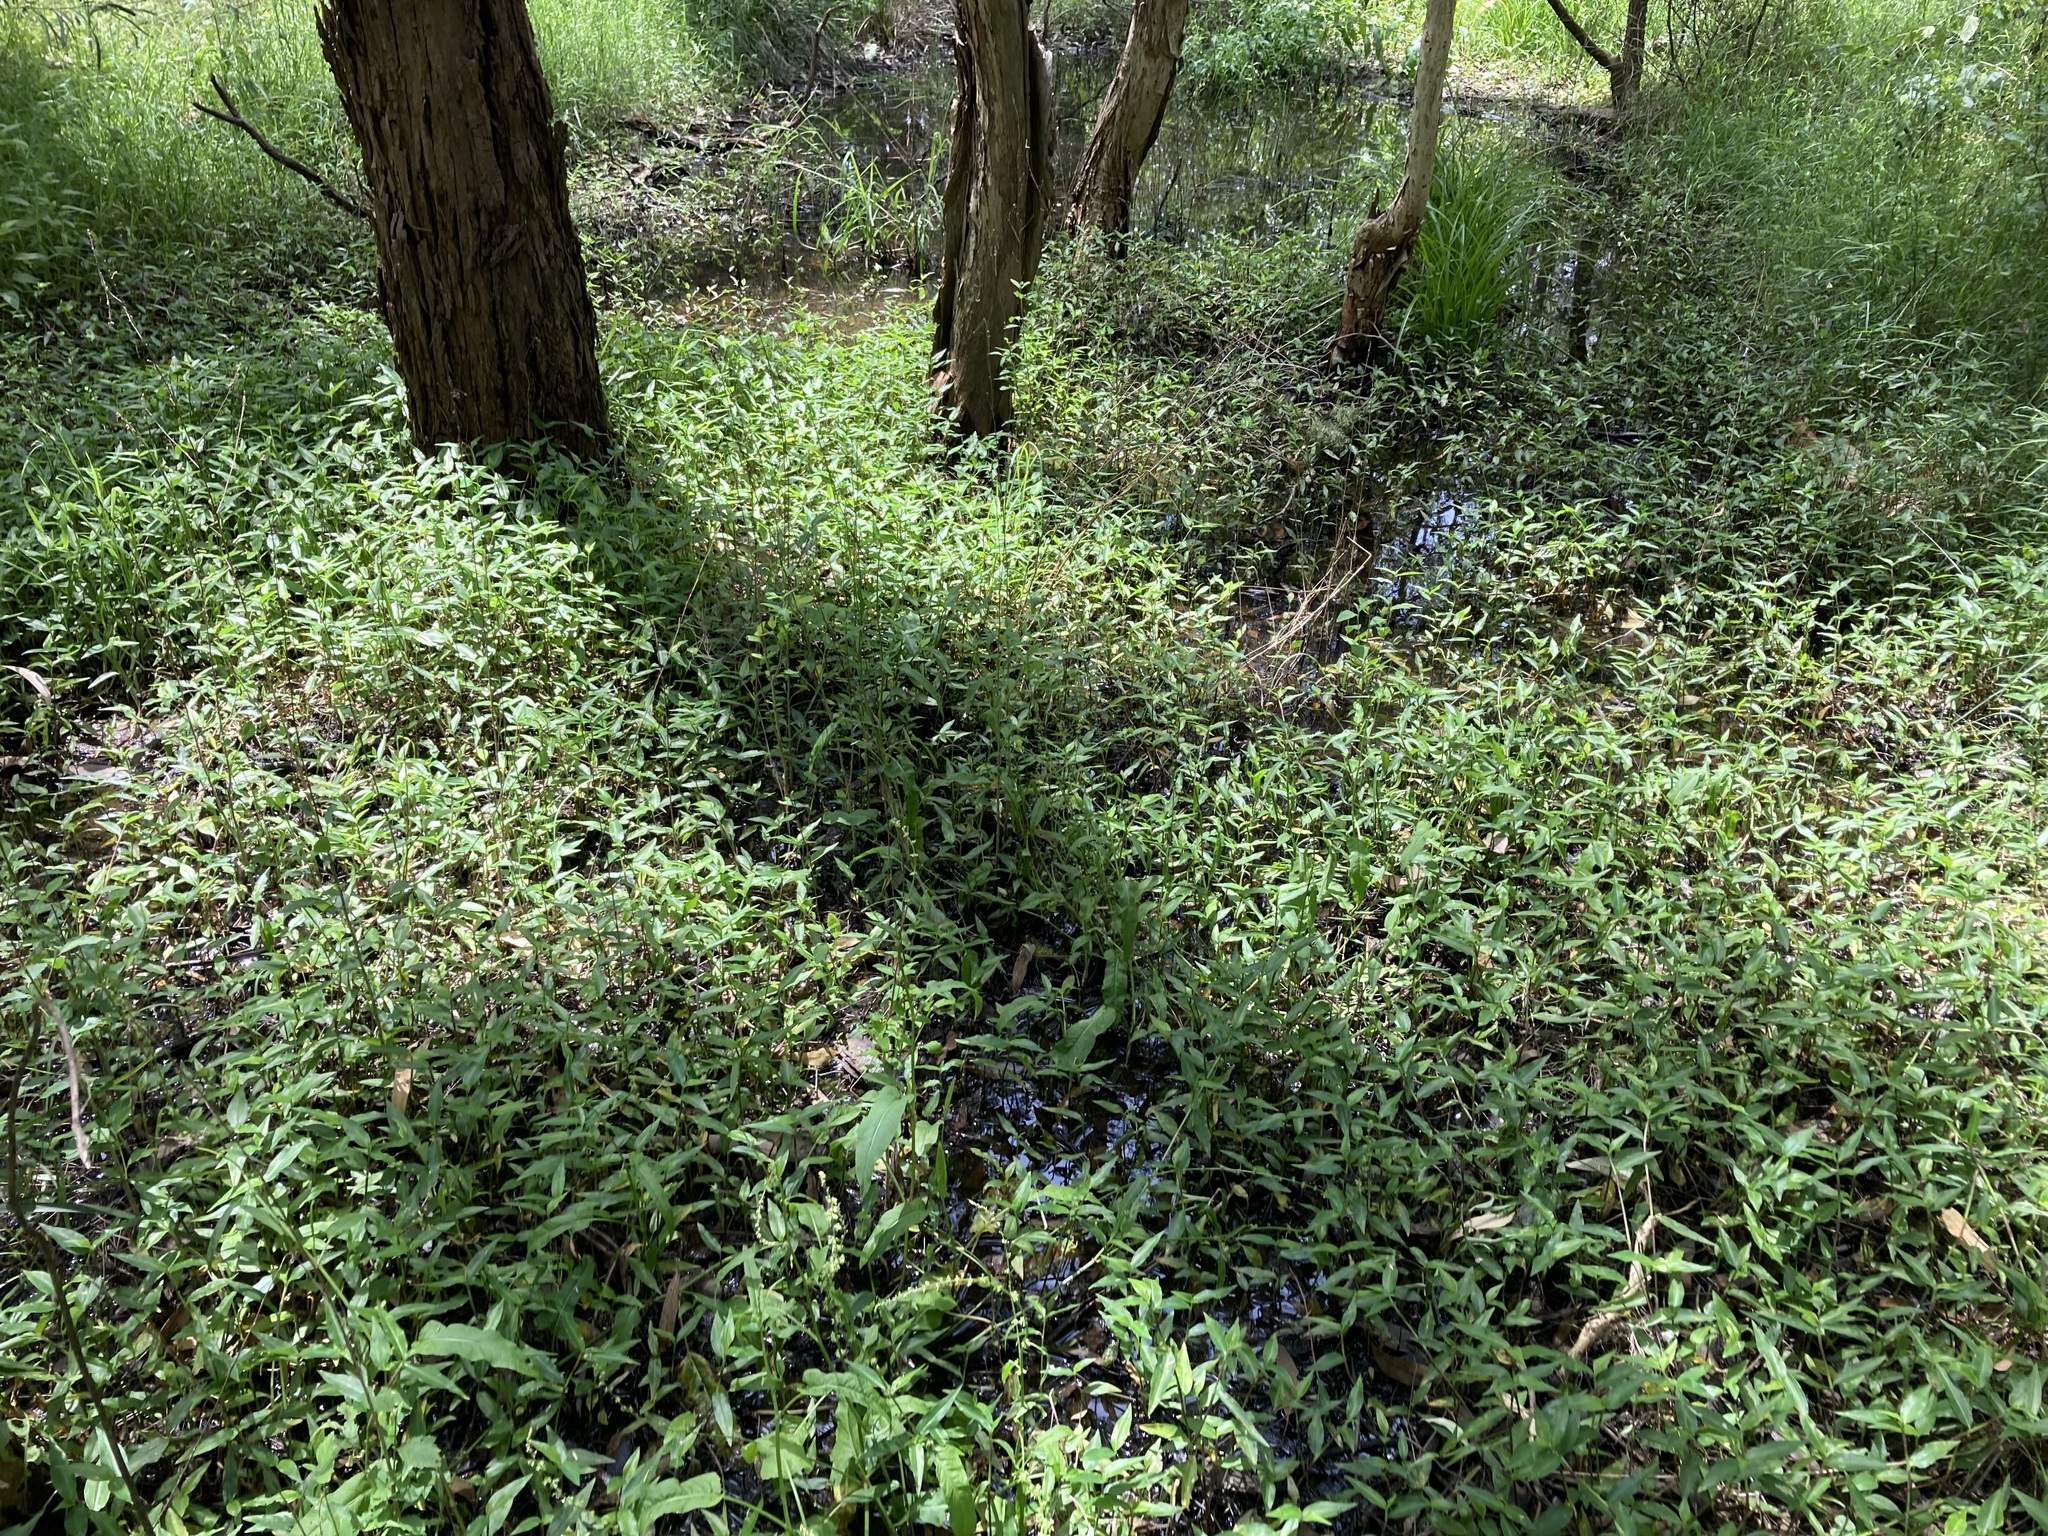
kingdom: Plantae
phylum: Tracheophyta
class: Liliopsida
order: Commelinales
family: Commelinaceae
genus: Commelina
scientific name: Commelina cyanea
